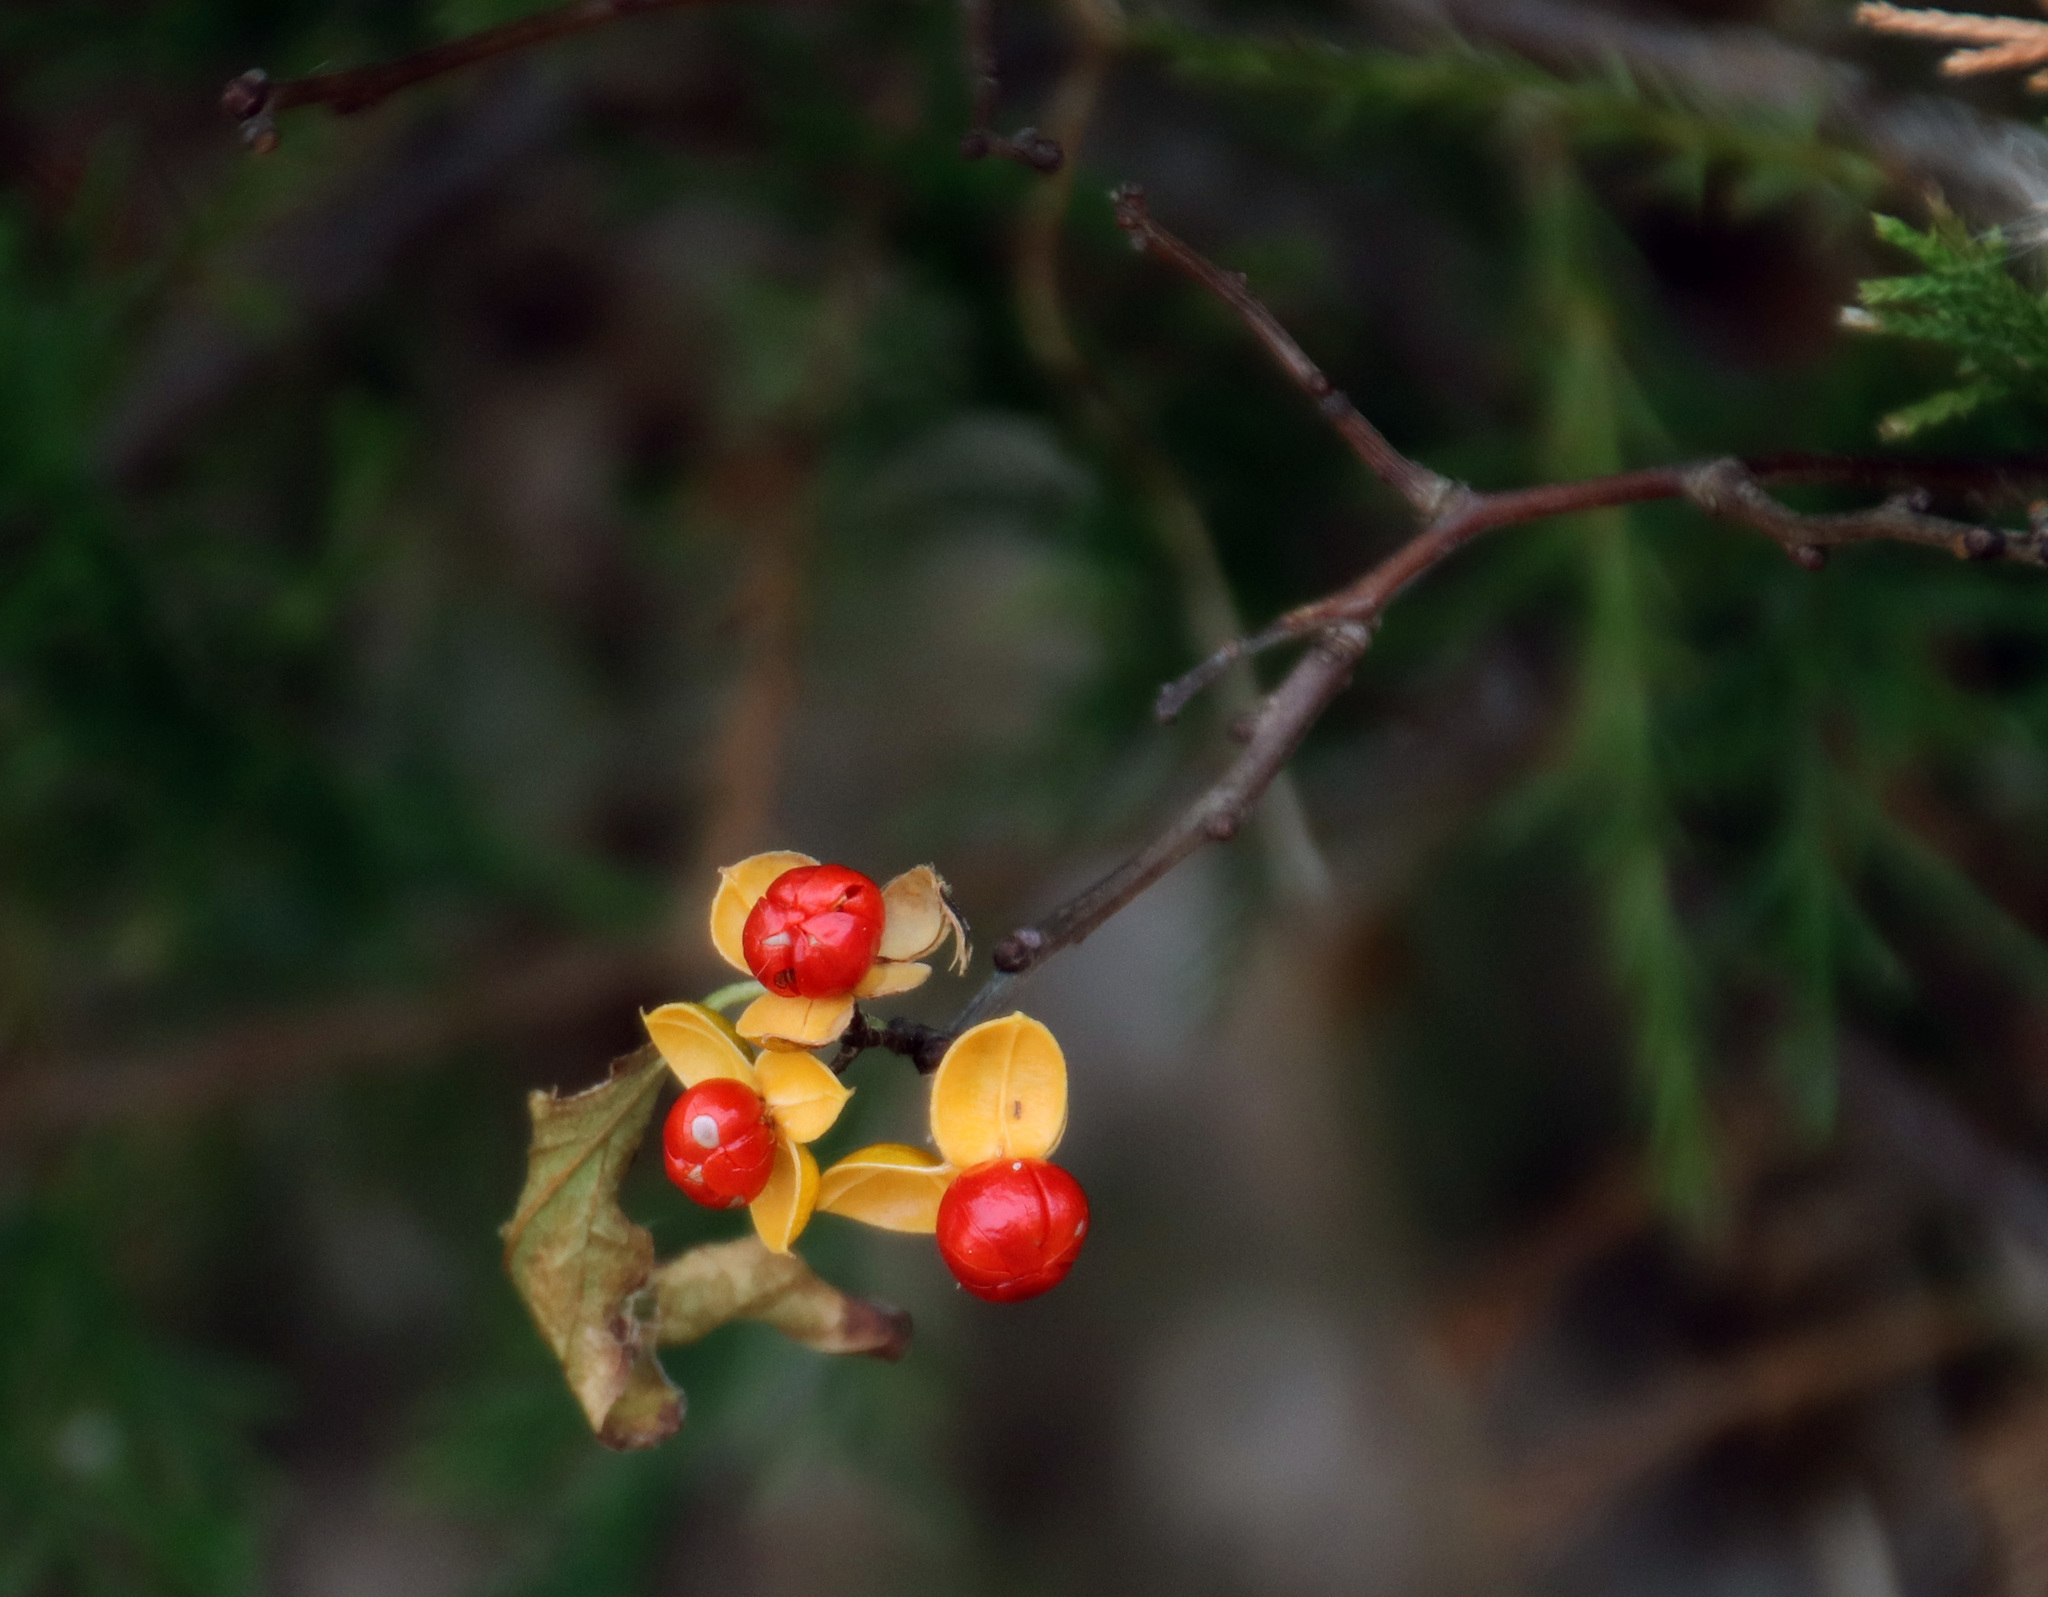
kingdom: Plantae
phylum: Tracheophyta
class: Magnoliopsida
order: Celastrales
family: Celastraceae
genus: Celastrus
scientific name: Celastrus orbiculatus
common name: Oriental bittersweet
